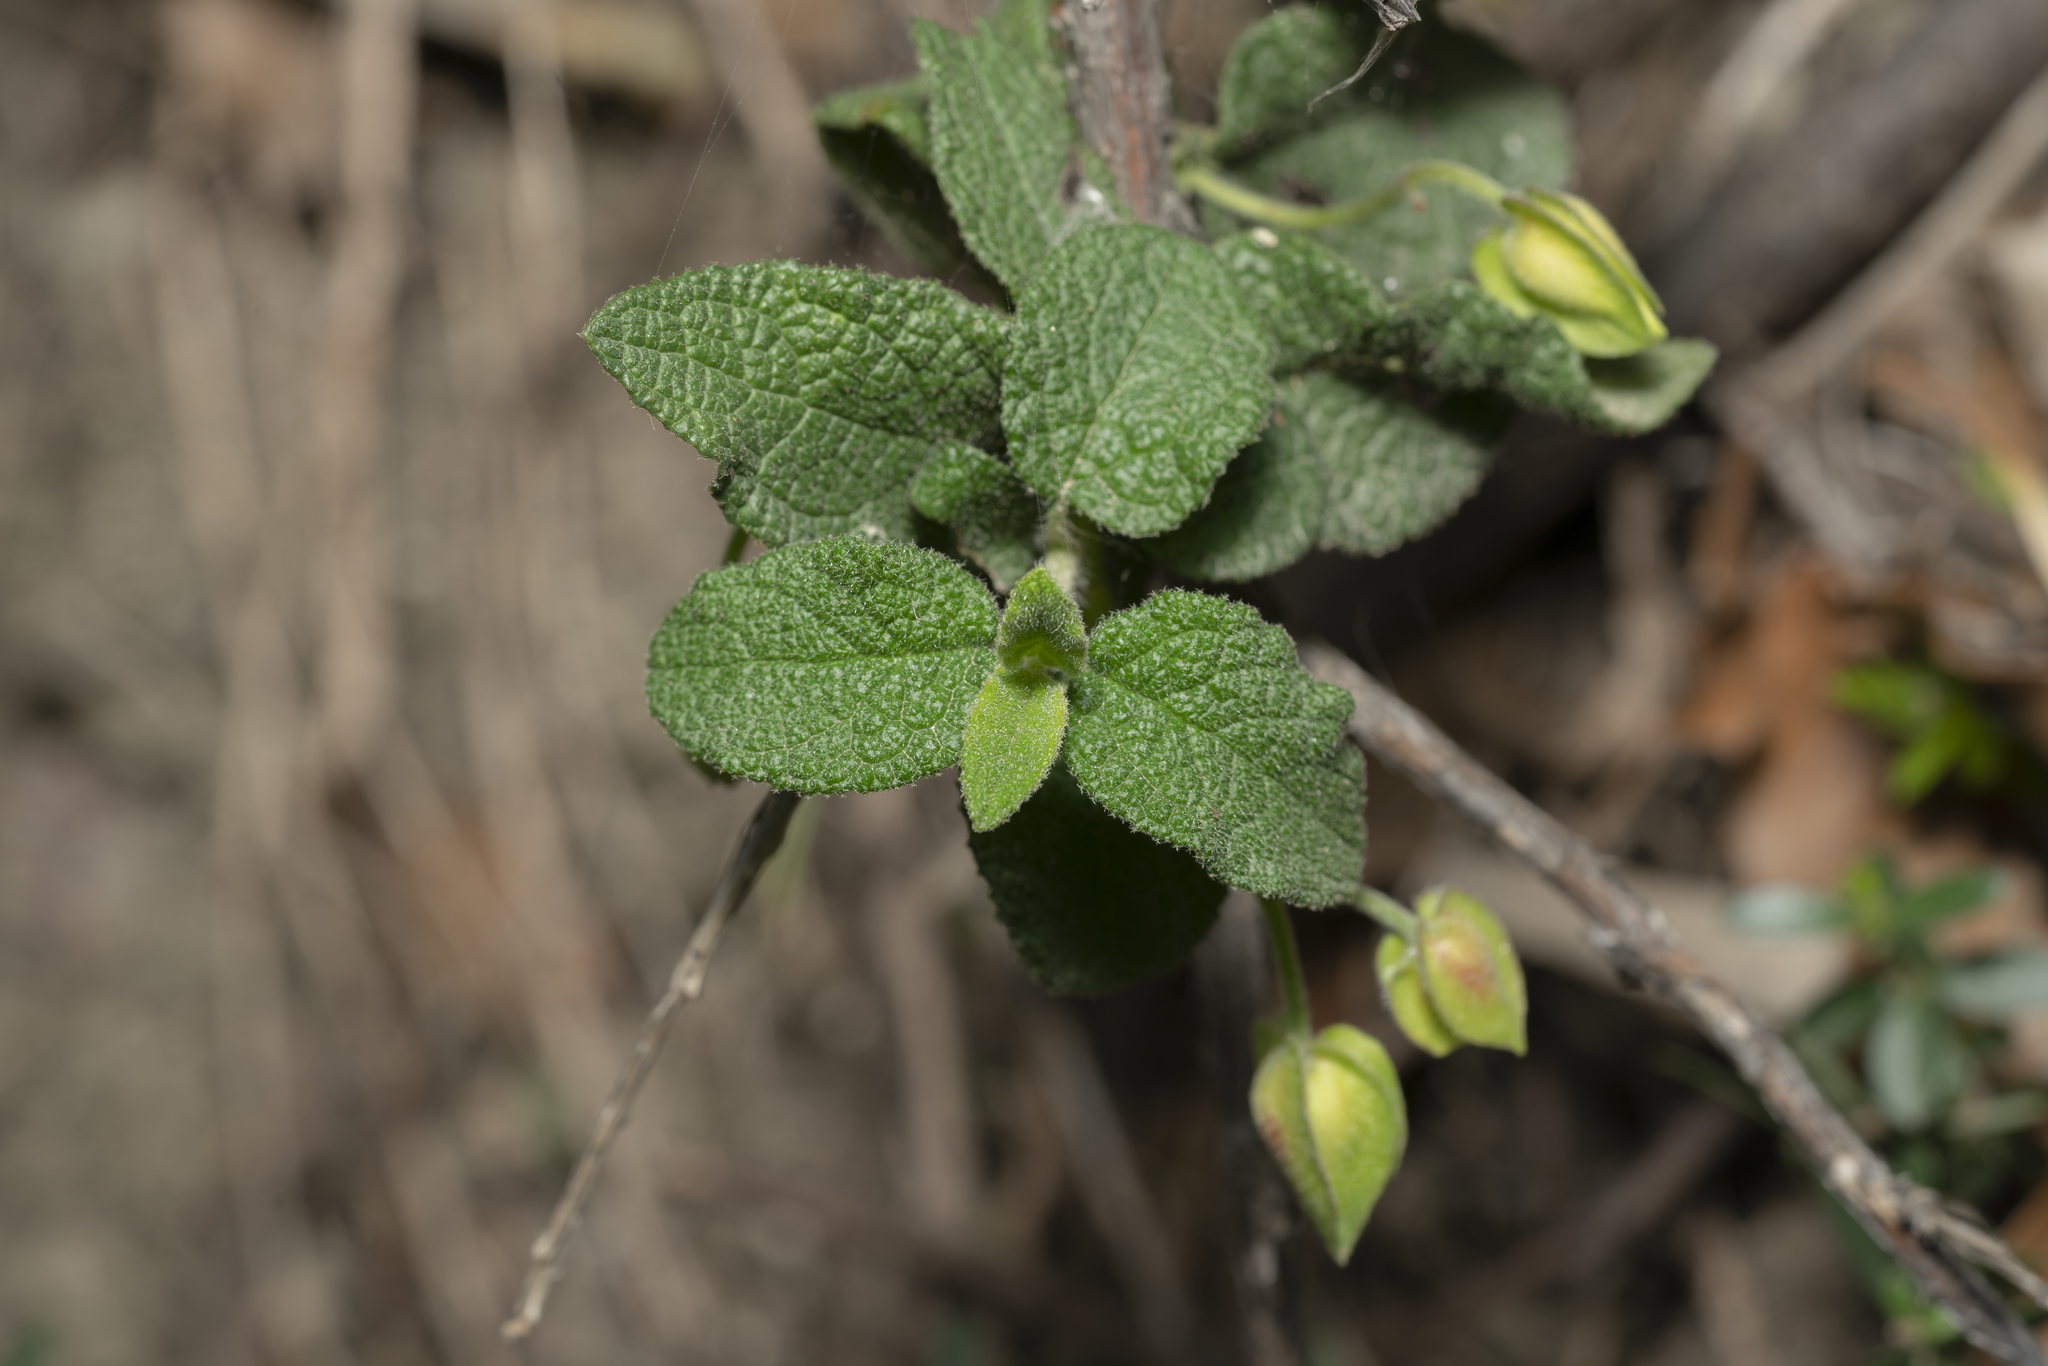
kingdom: Plantae
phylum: Tracheophyta
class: Magnoliopsida
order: Malvales
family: Cistaceae
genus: Cistus
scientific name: Cistus salviifolius
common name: Salvia cistus
